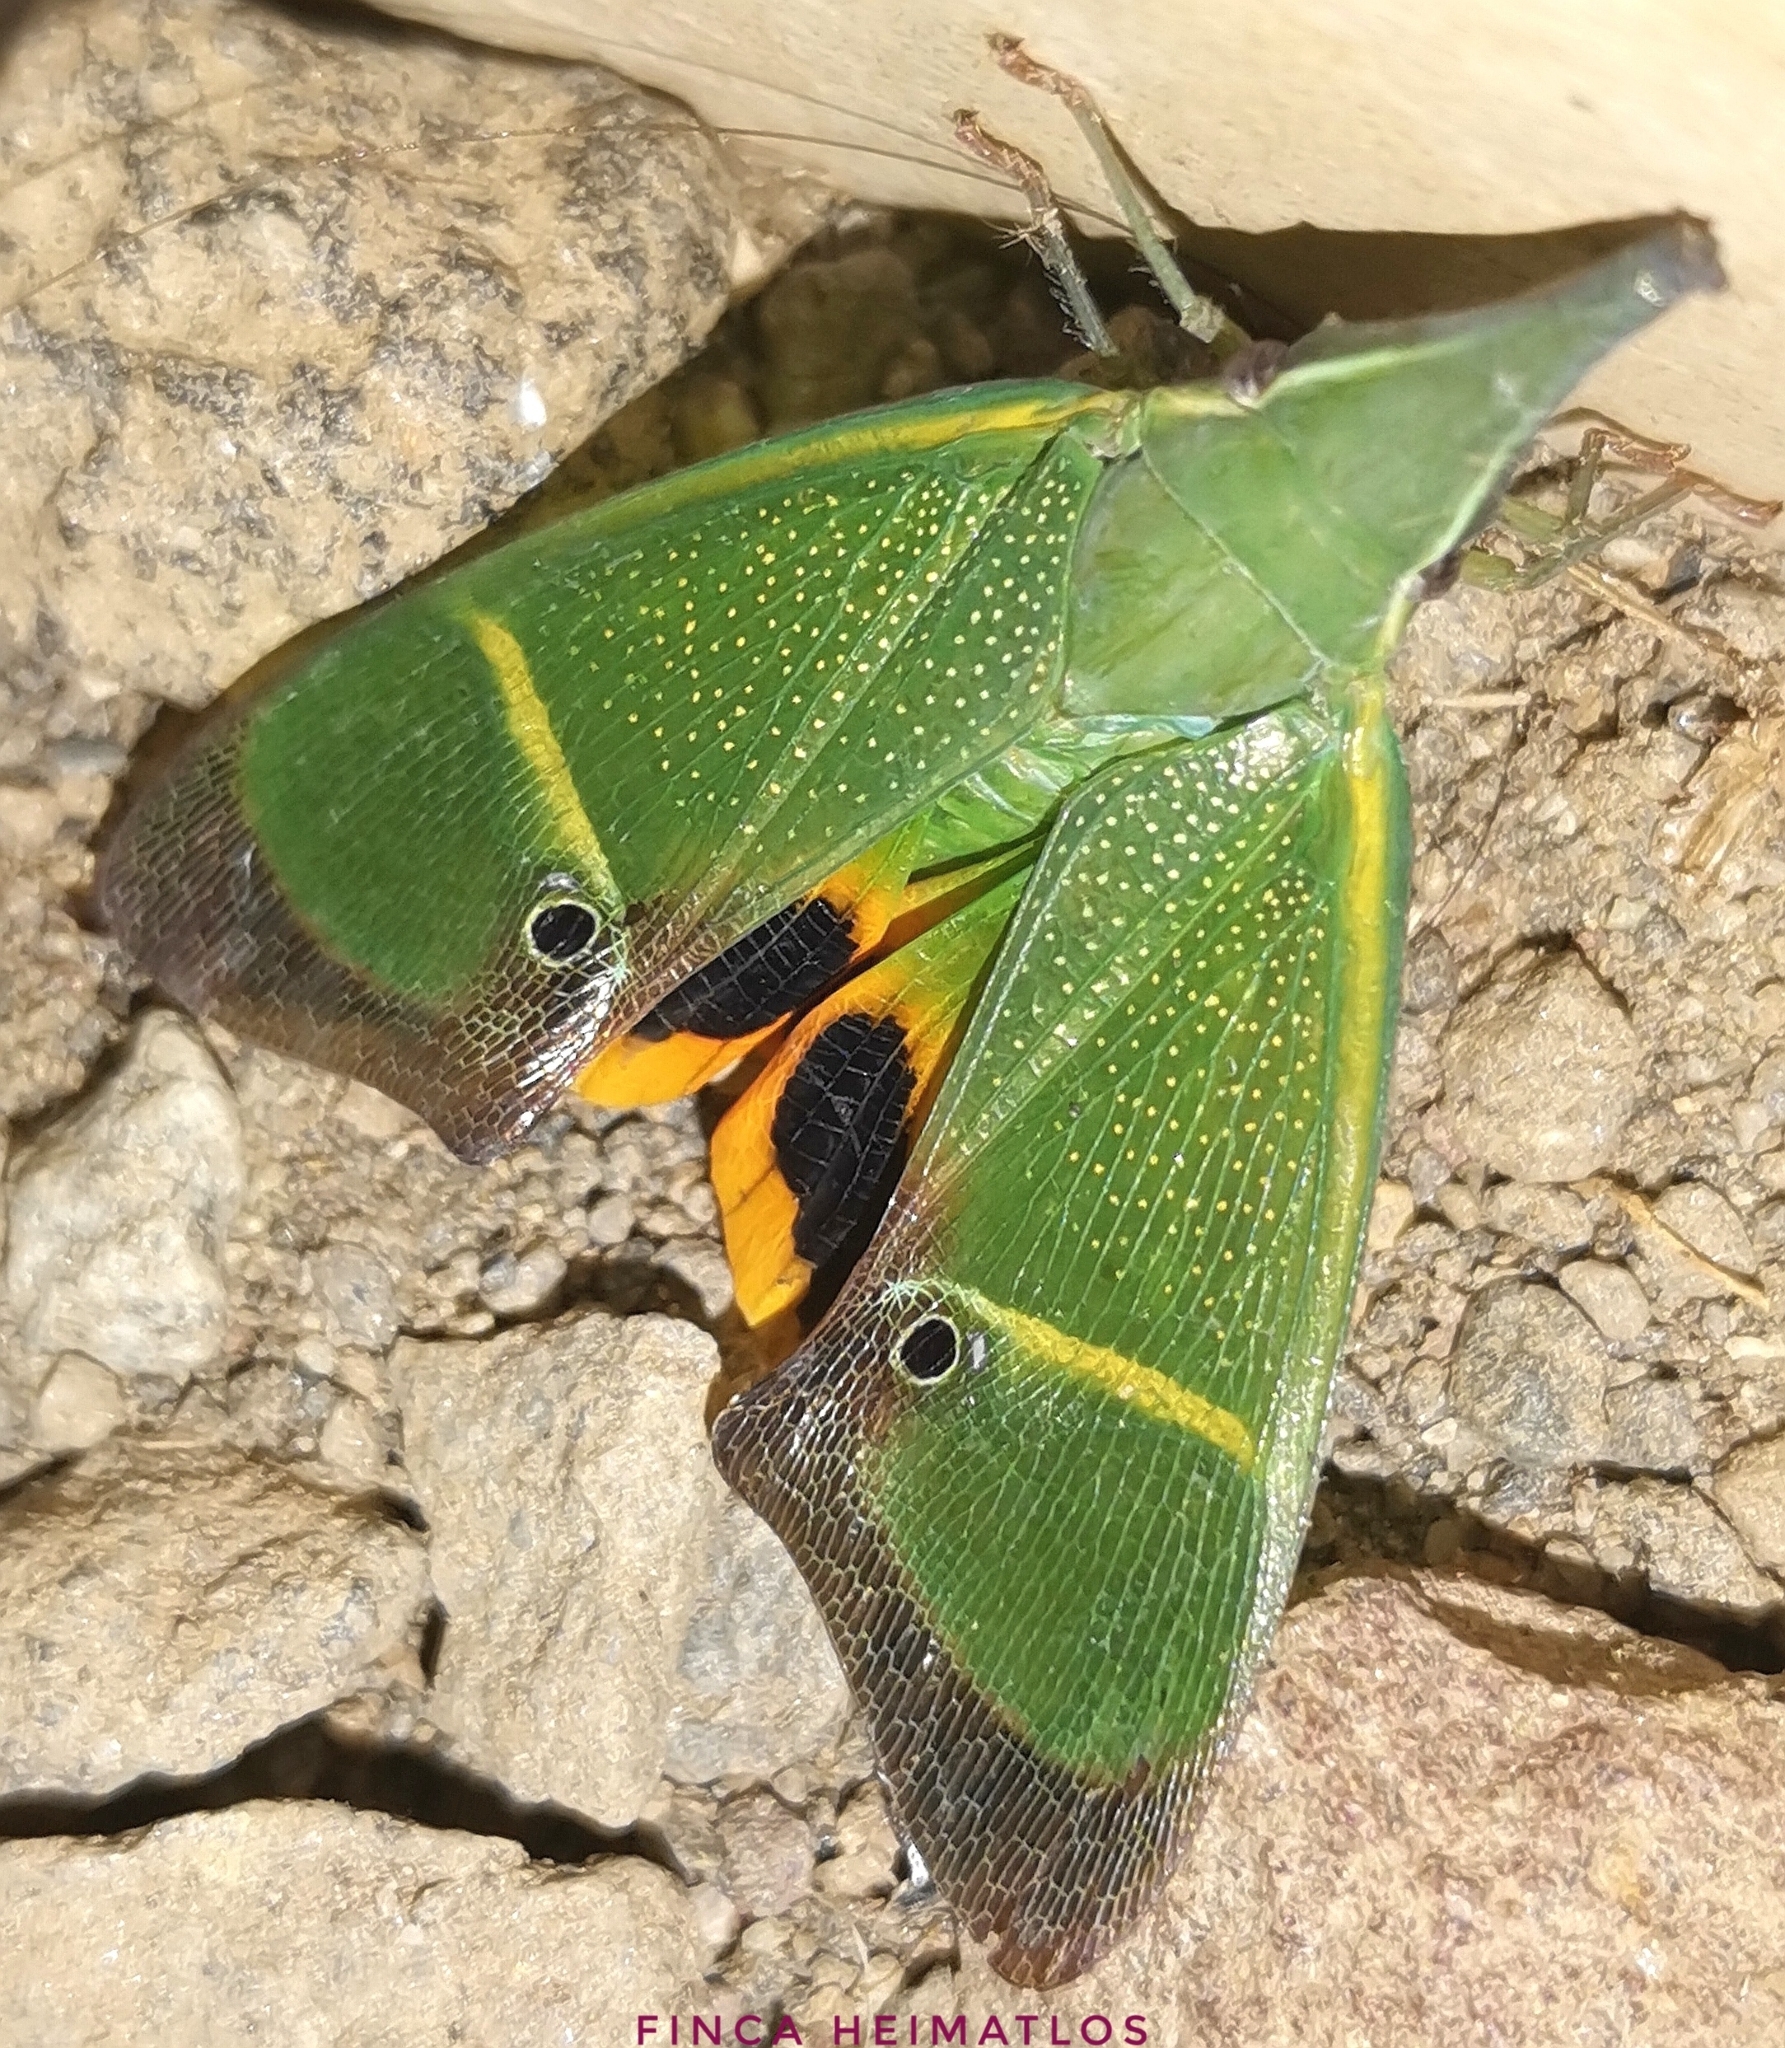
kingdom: Animalia
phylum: Arthropoda
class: Insecta
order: Hemiptera
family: Fulgoridae
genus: Odontoptera
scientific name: Odontoptera carrenoi
